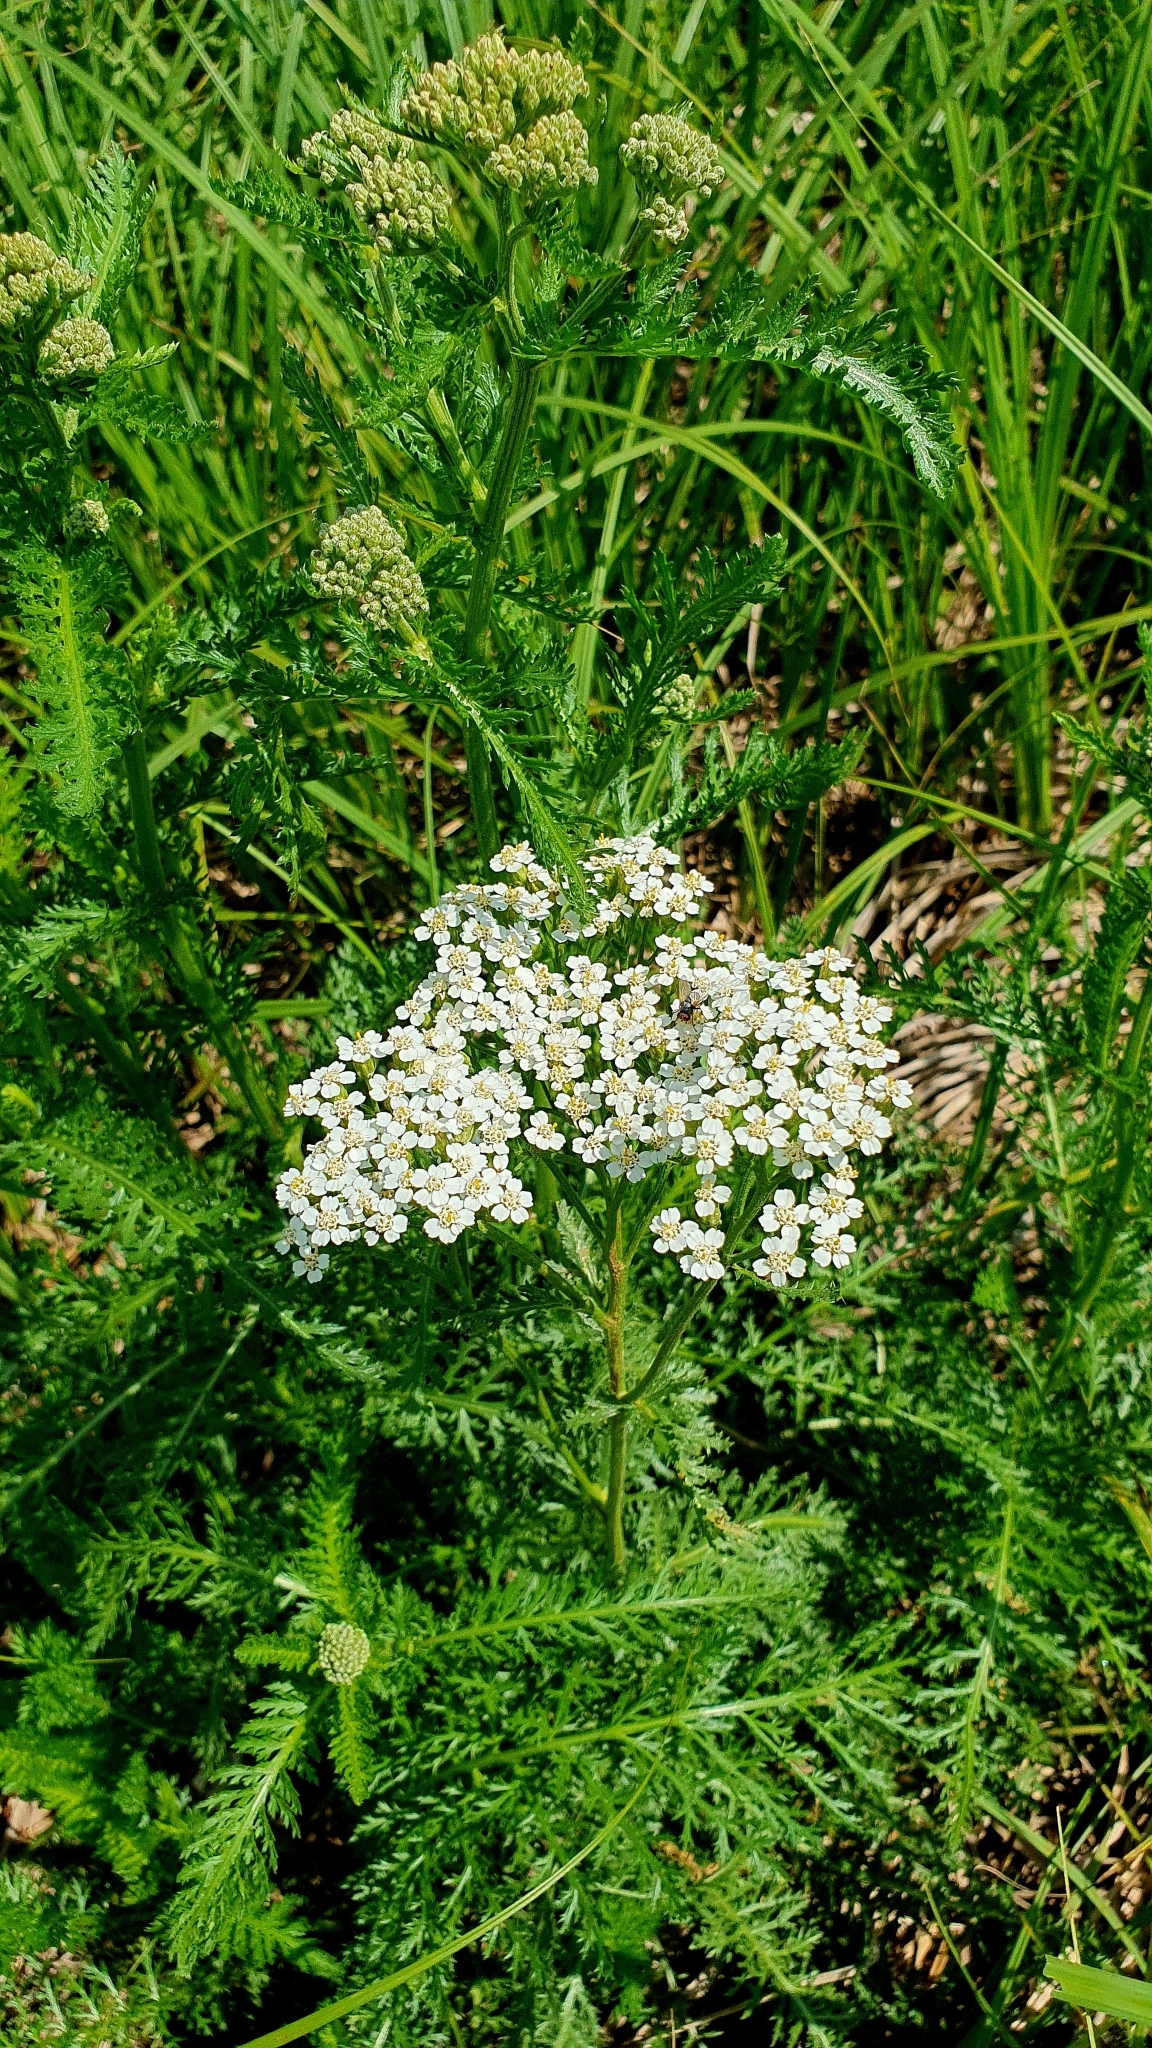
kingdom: Plantae
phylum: Tracheophyta
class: Magnoliopsida
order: Asterales
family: Asteraceae
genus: Achillea
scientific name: Achillea millefolium
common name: Yarrow
